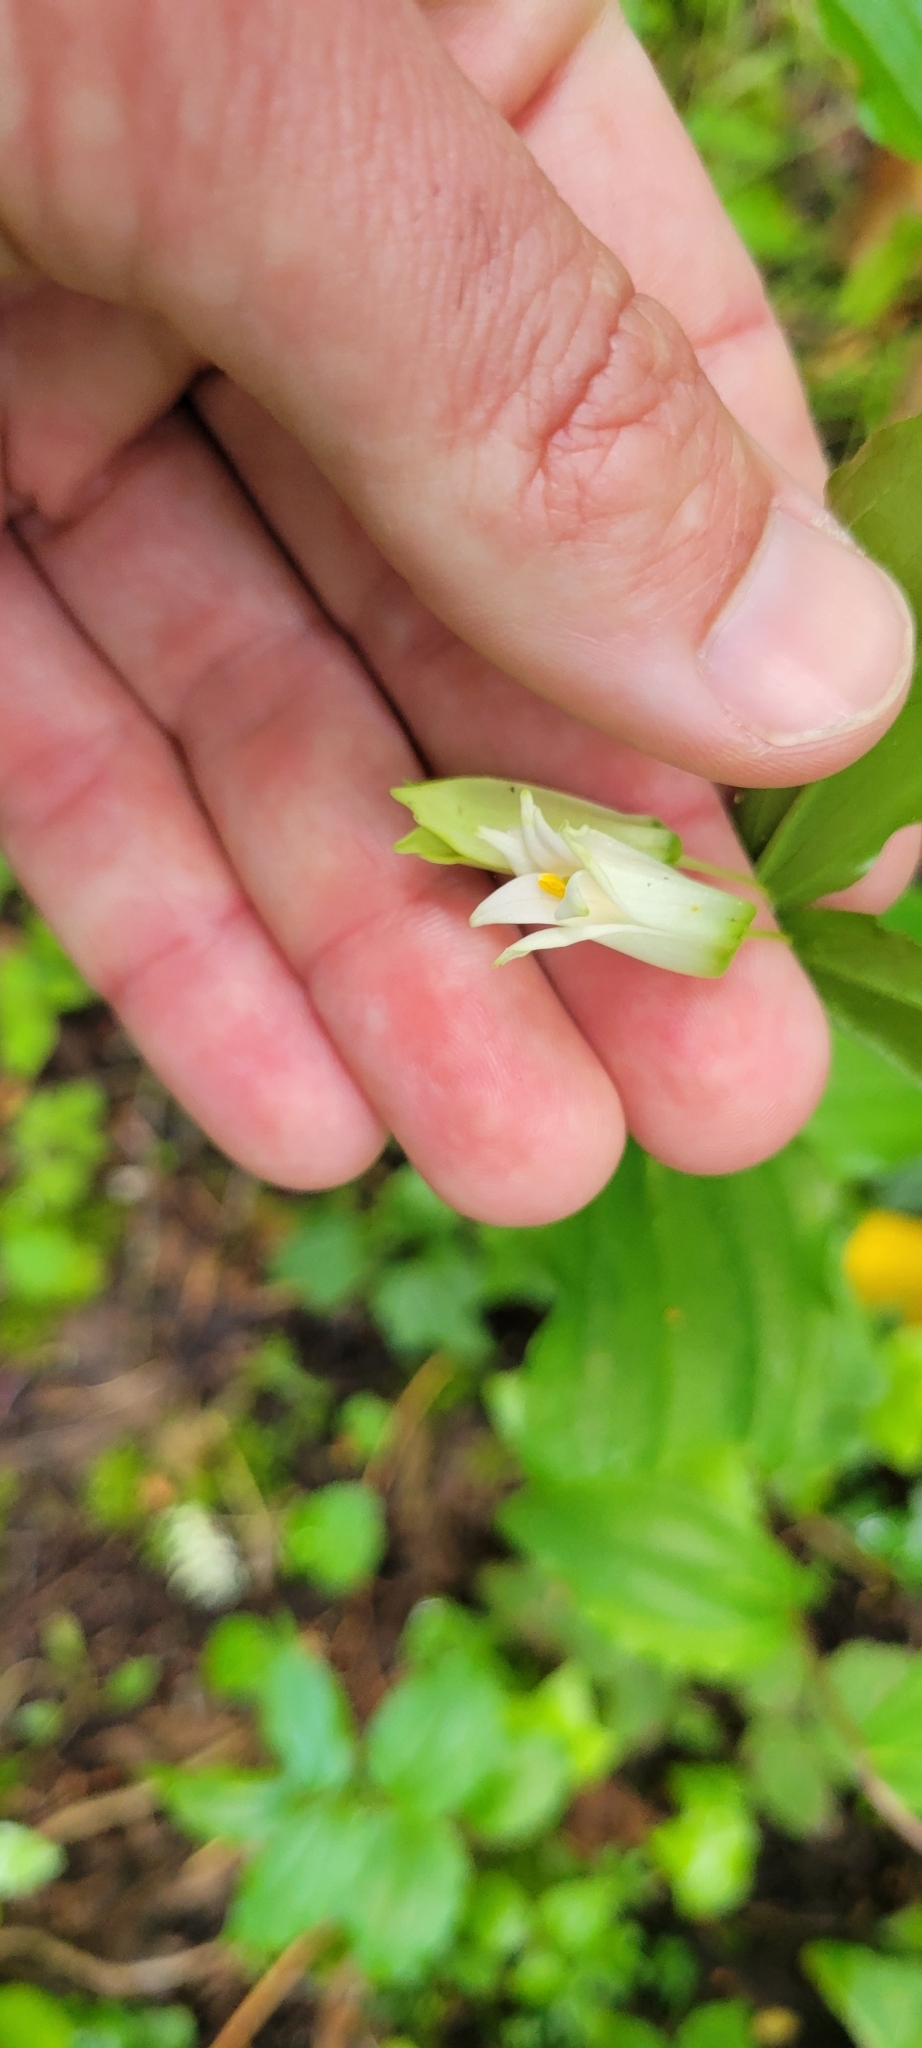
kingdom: Plantae
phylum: Tracheophyta
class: Liliopsida
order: Liliales
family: Liliaceae
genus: Prosartes
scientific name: Prosartes smithii
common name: Fairy-lantern
